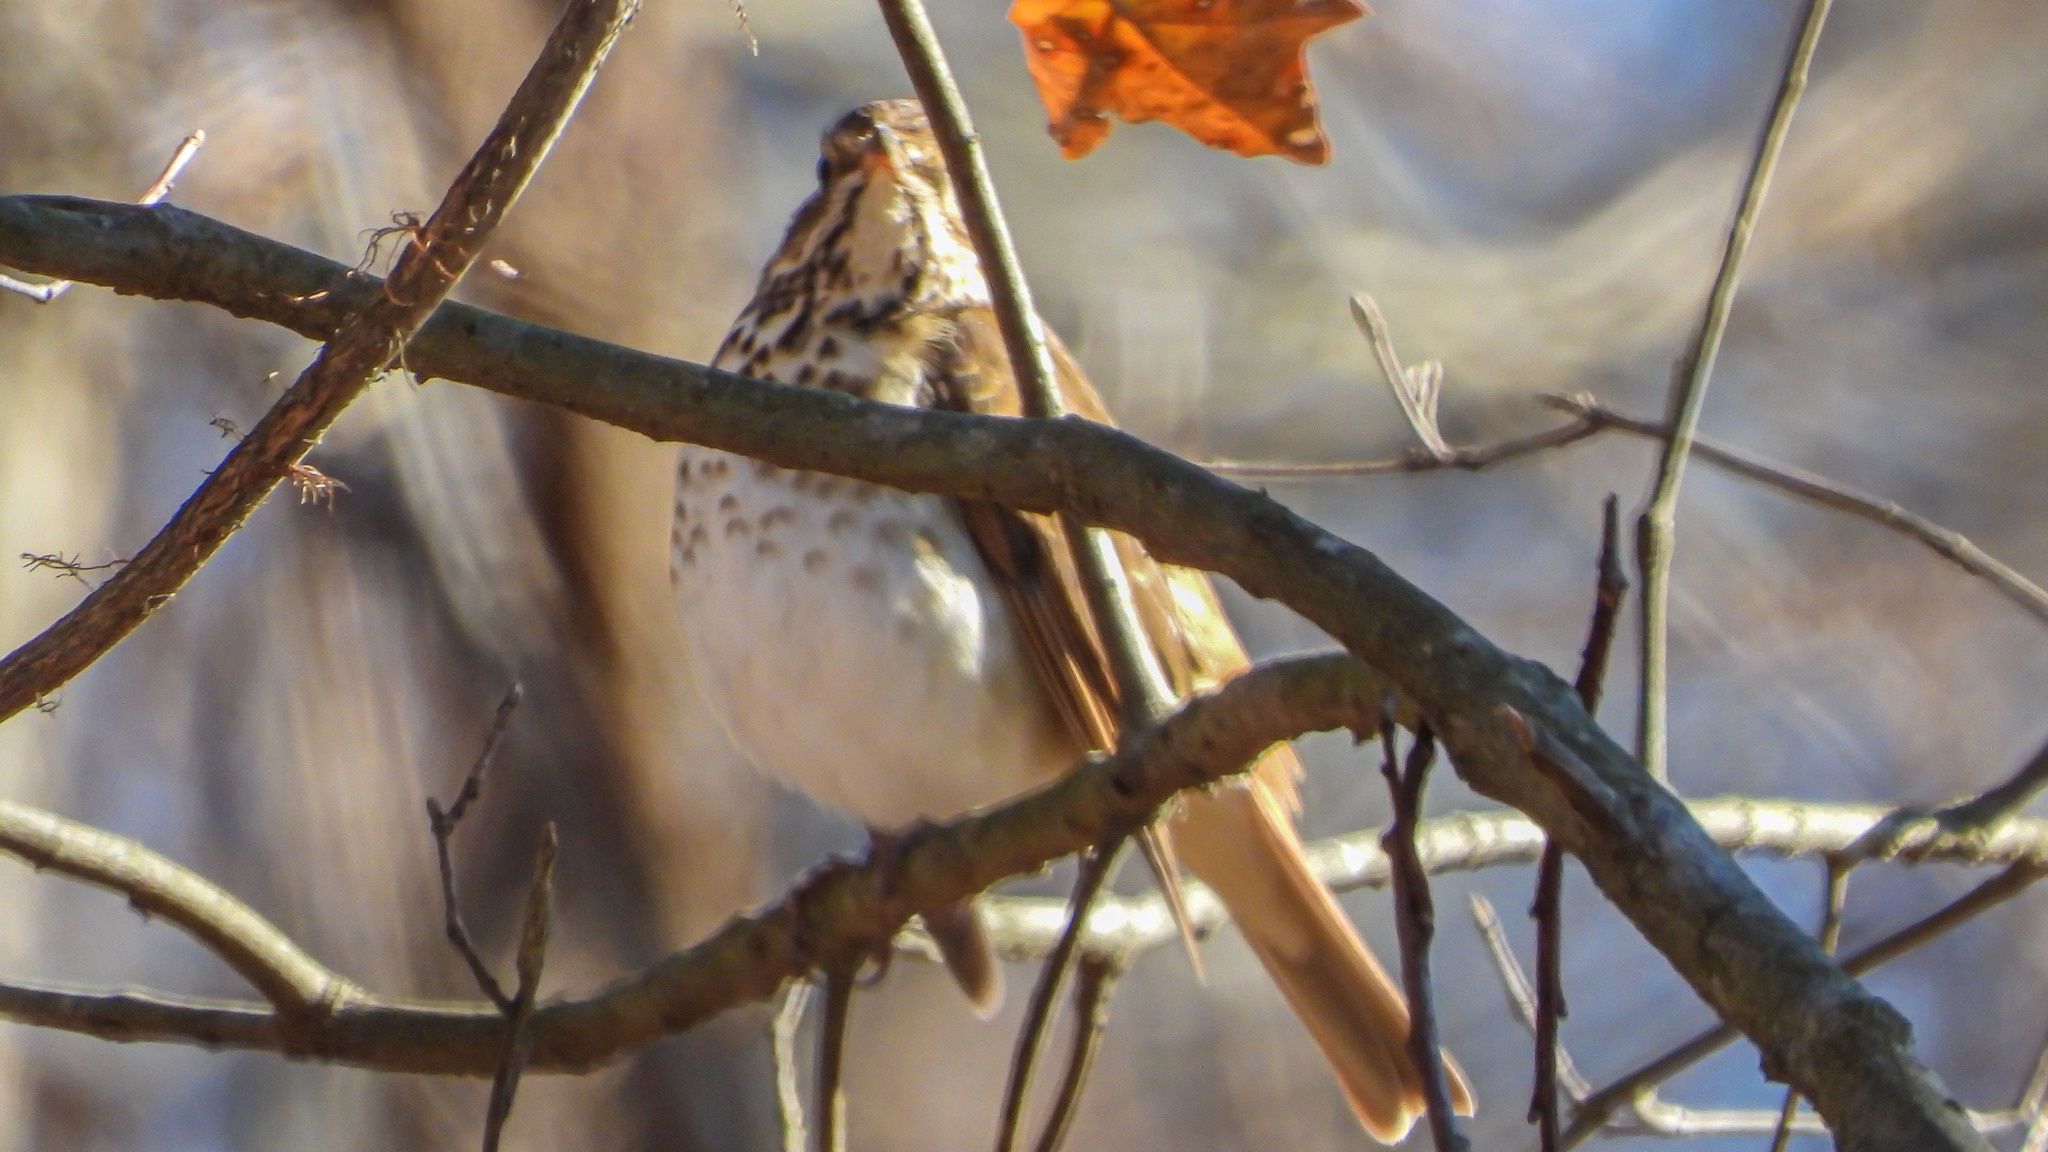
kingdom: Animalia
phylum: Chordata
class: Aves
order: Passeriformes
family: Turdidae
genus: Catharus
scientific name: Catharus guttatus
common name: Hermit thrush
